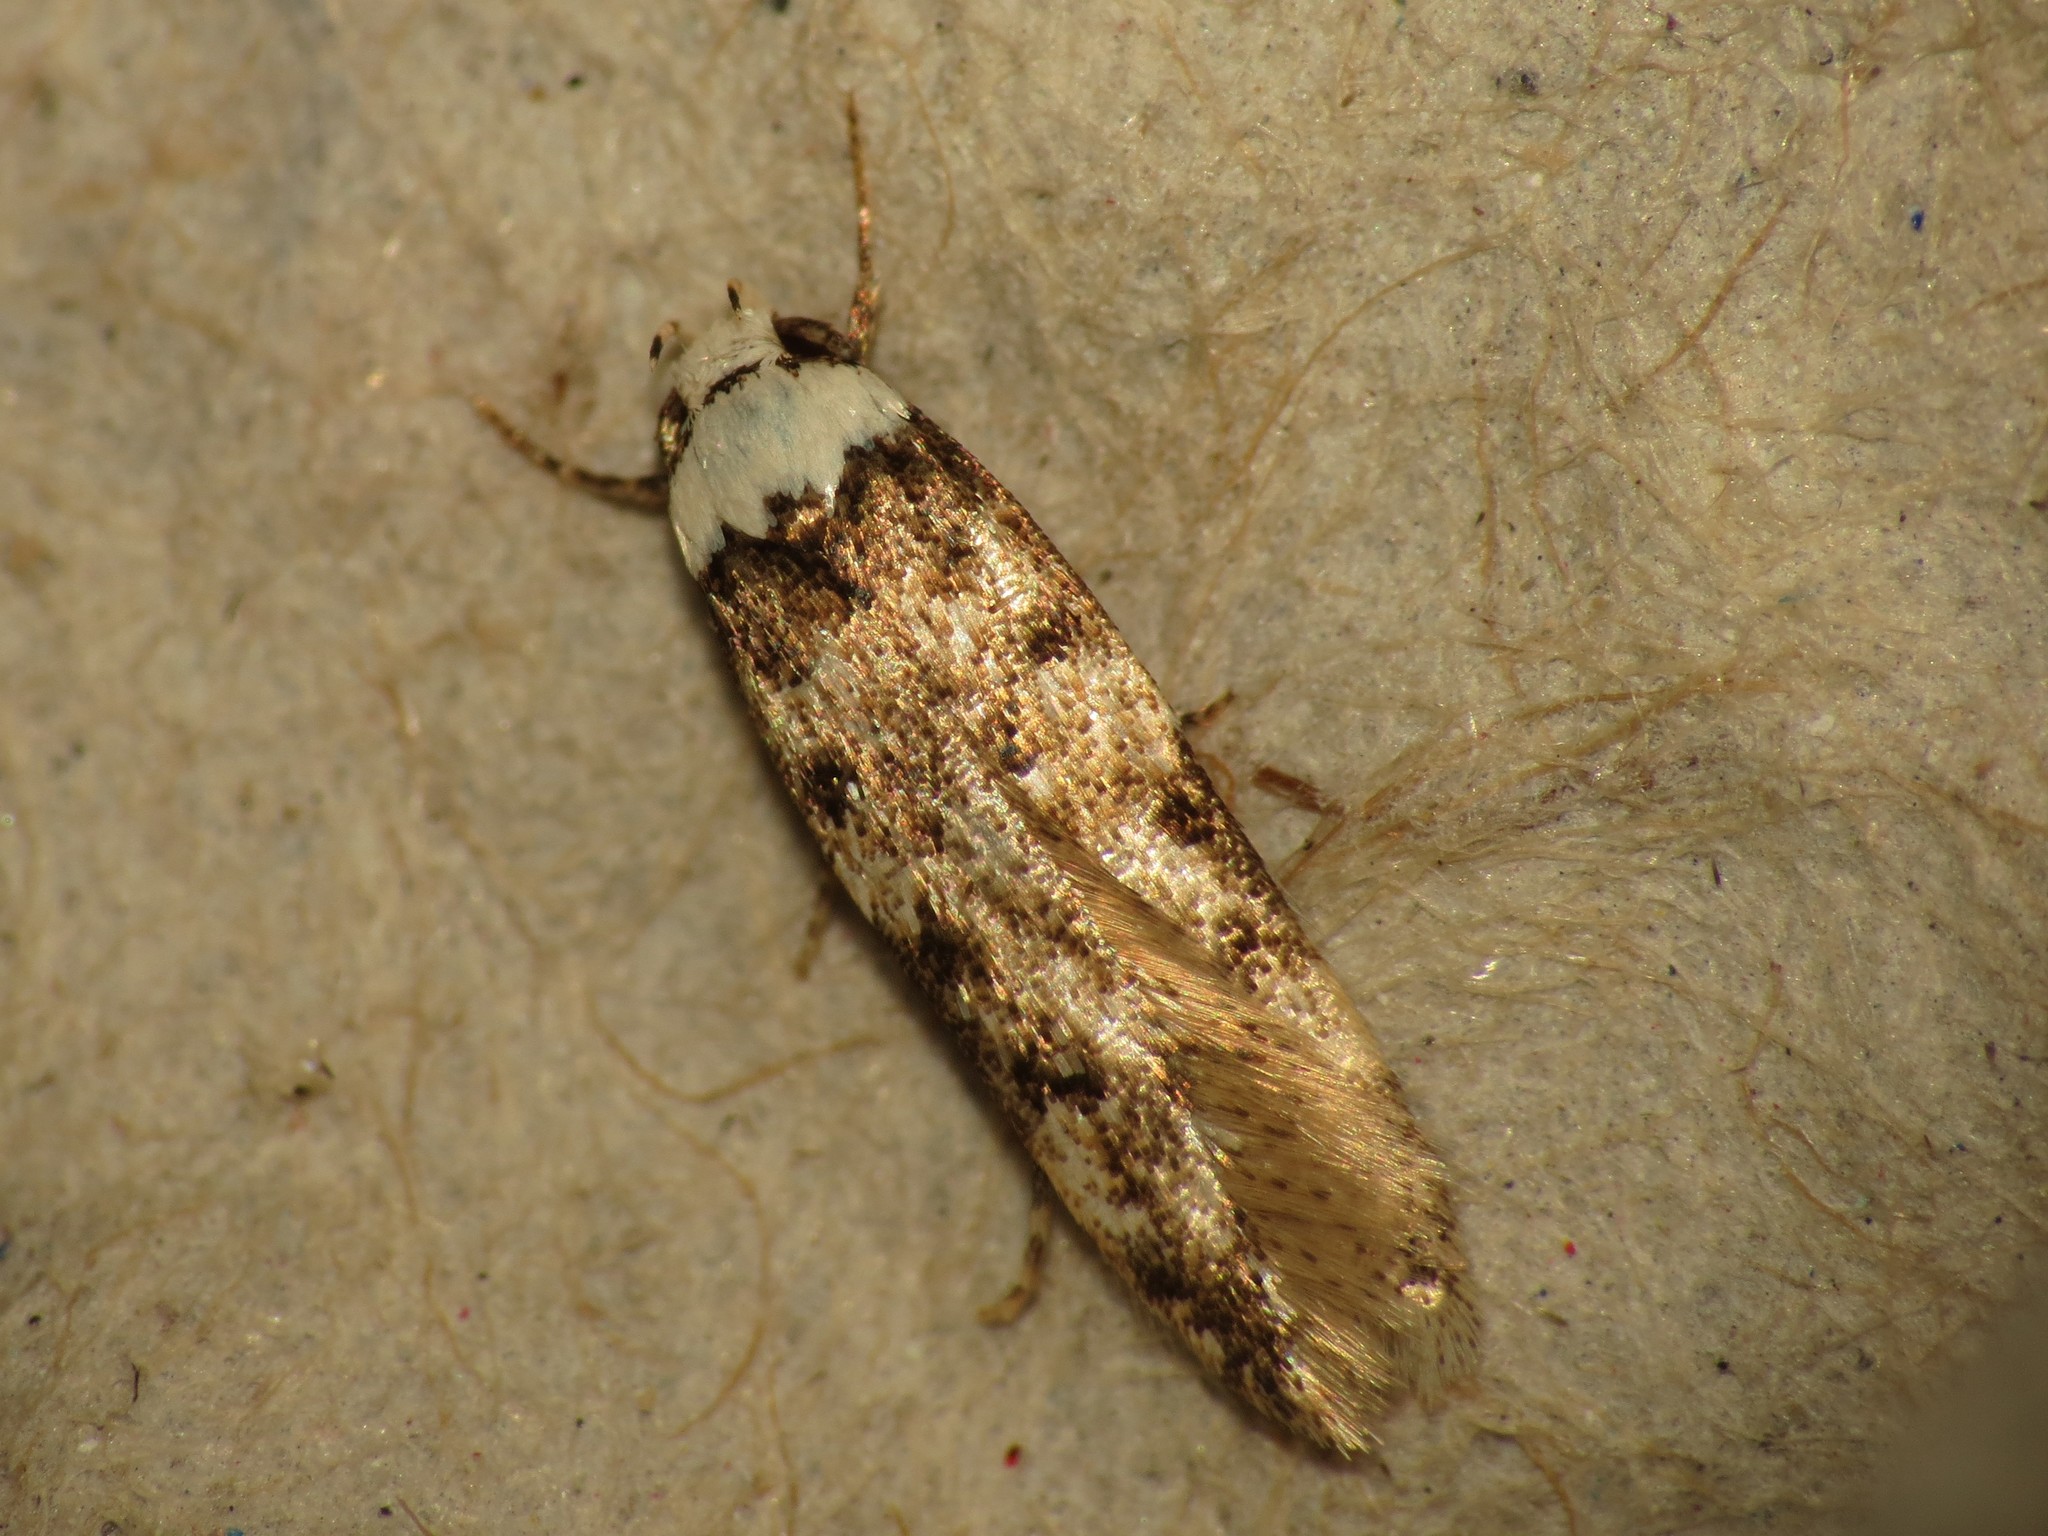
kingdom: Animalia
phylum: Arthropoda
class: Insecta
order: Lepidoptera
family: Oecophoridae
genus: Endrosis
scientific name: Endrosis sarcitrella
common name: White-shouldered house moth
